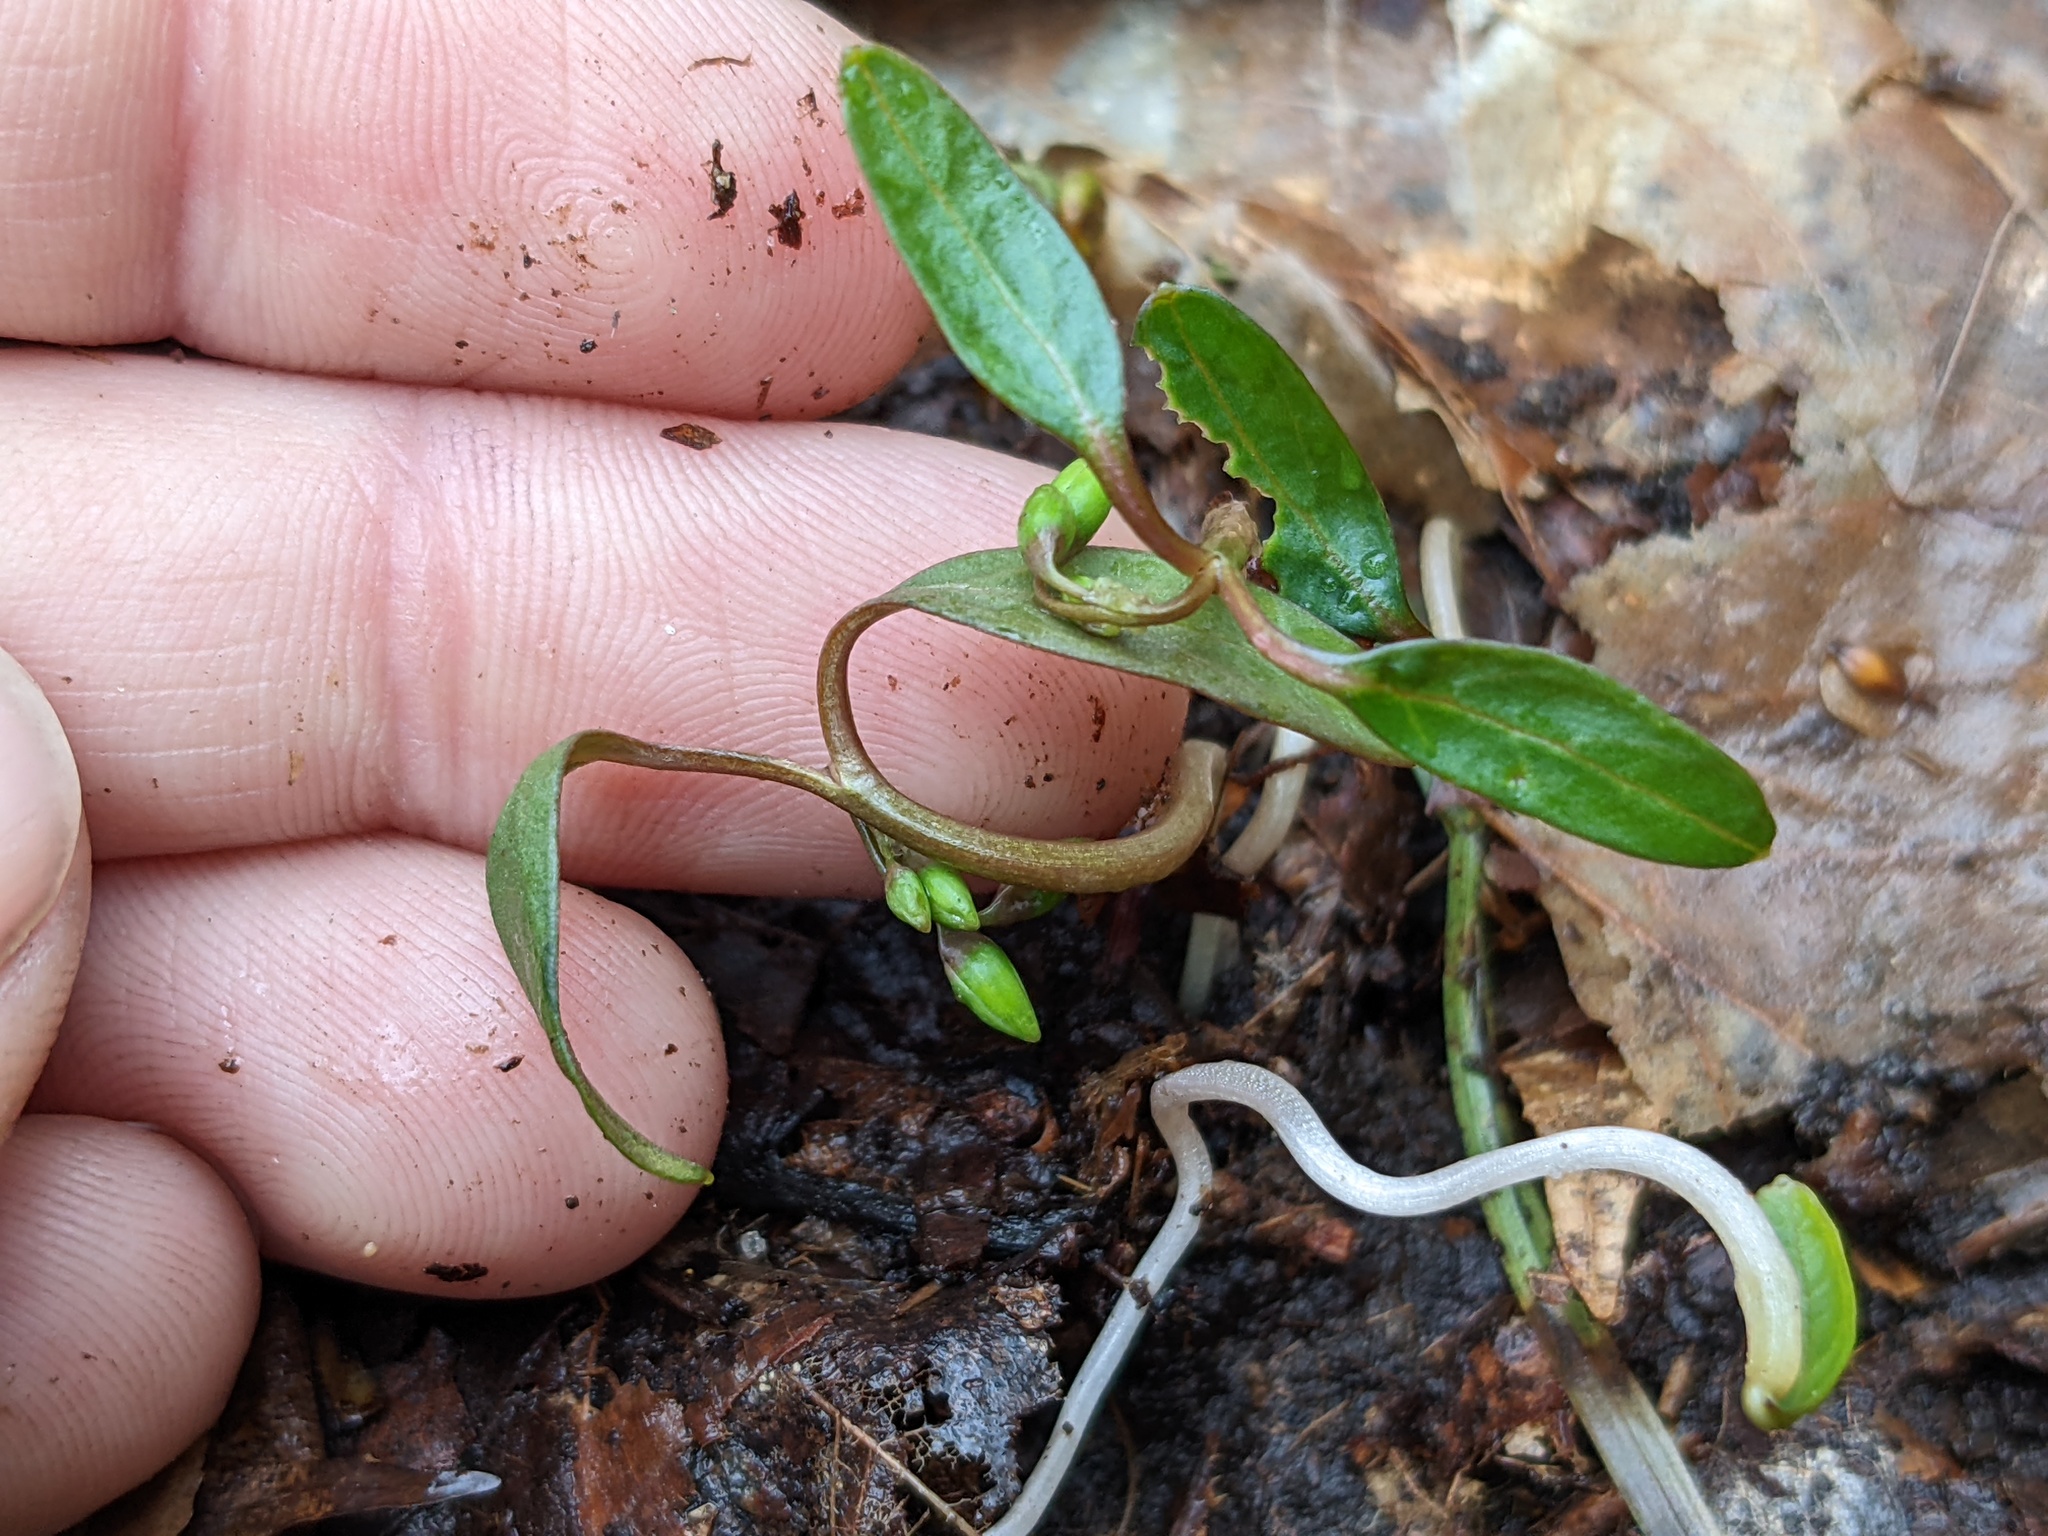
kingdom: Plantae
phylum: Tracheophyta
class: Magnoliopsida
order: Caryophyllales
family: Montiaceae
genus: Claytonia
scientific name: Claytonia caroliniana
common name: Carolina spring beauty
